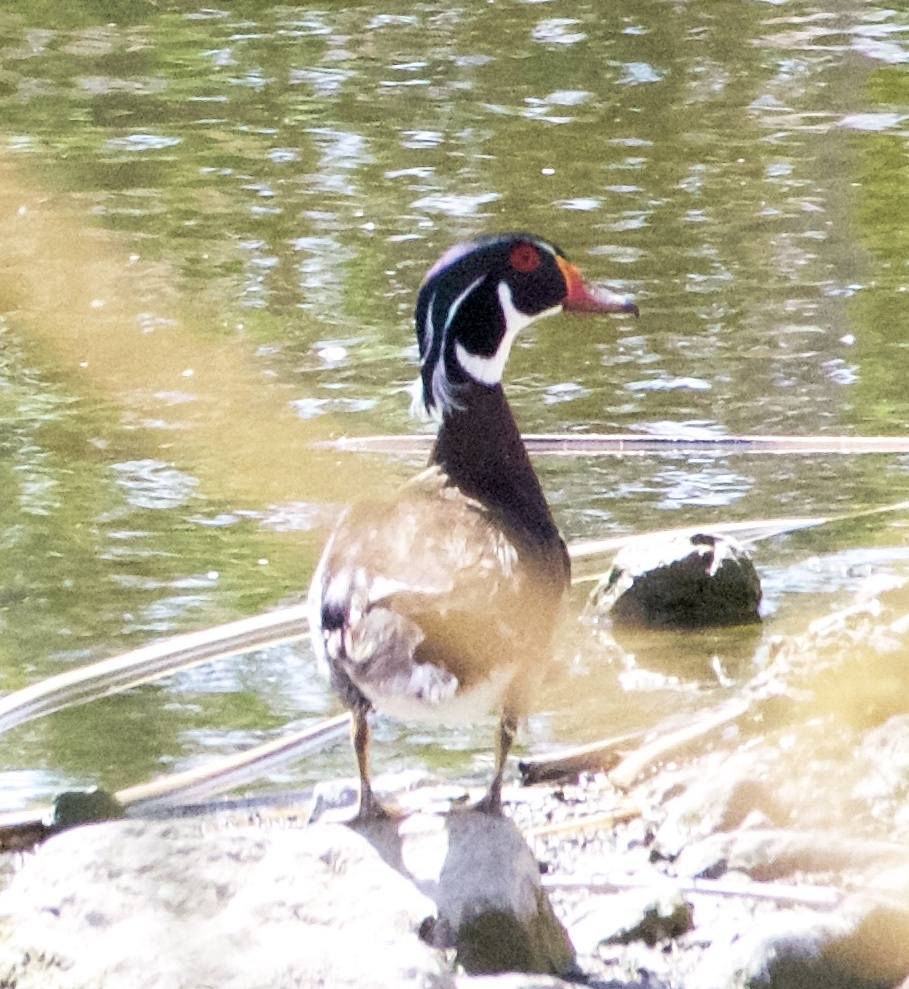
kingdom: Animalia
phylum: Chordata
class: Aves
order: Anseriformes
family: Anatidae
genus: Aix
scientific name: Aix sponsa
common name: Wood duck
